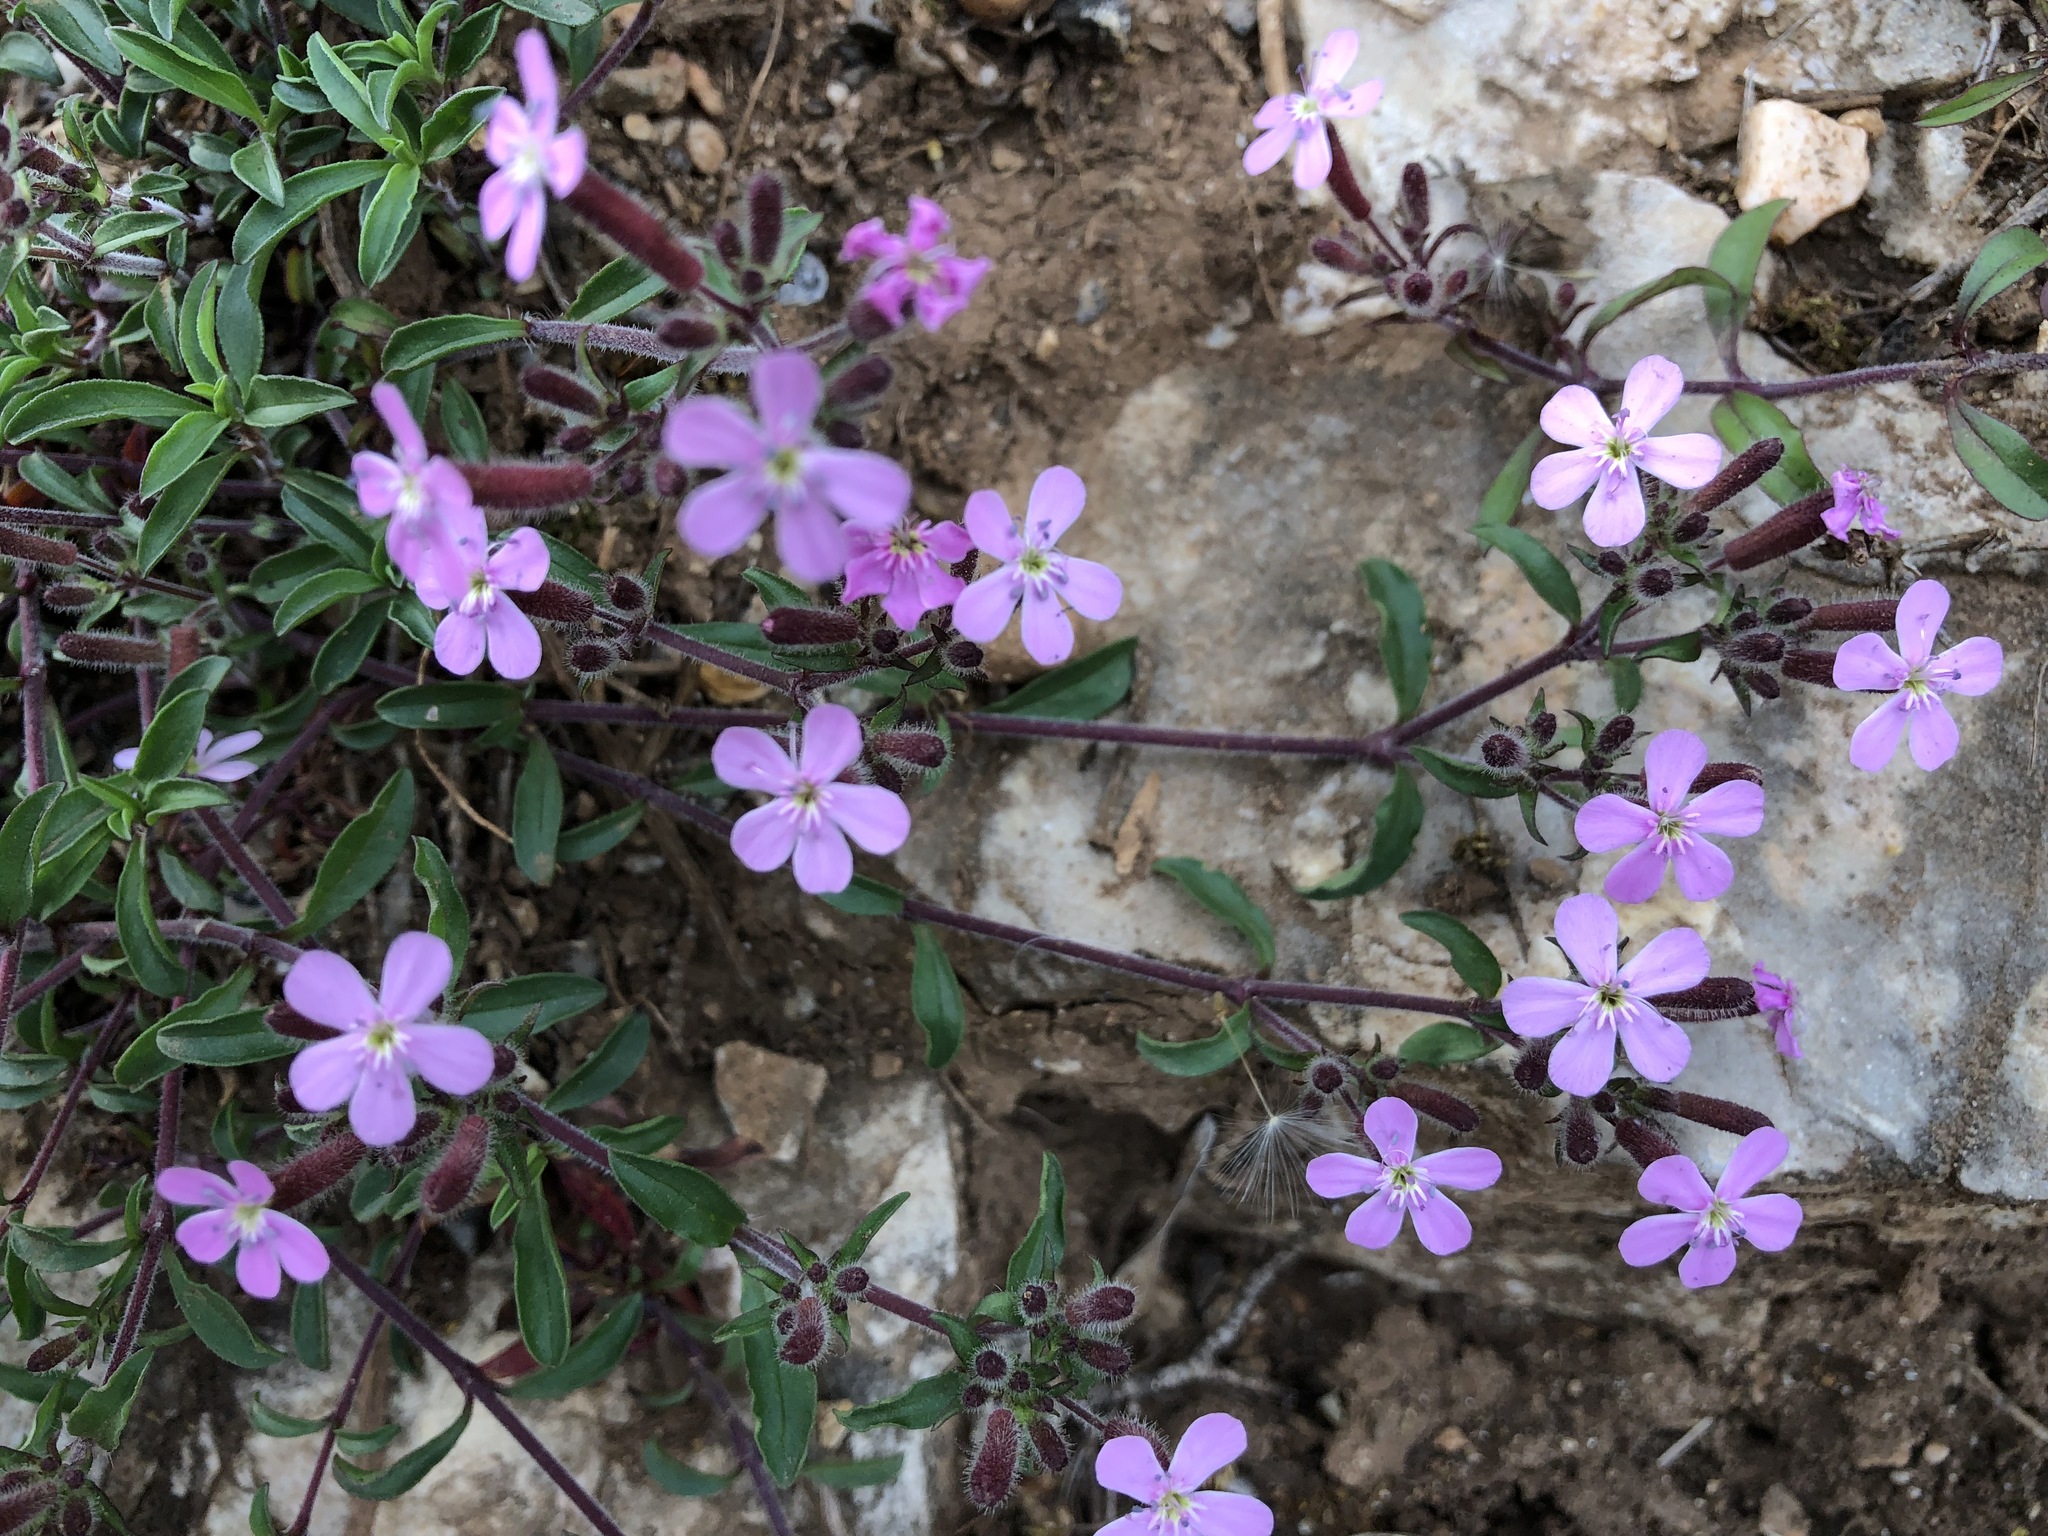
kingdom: Plantae
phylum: Tracheophyta
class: Magnoliopsida
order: Caryophyllales
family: Caryophyllaceae
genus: Saponaria
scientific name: Saponaria ocymoides
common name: Rock soapwort
